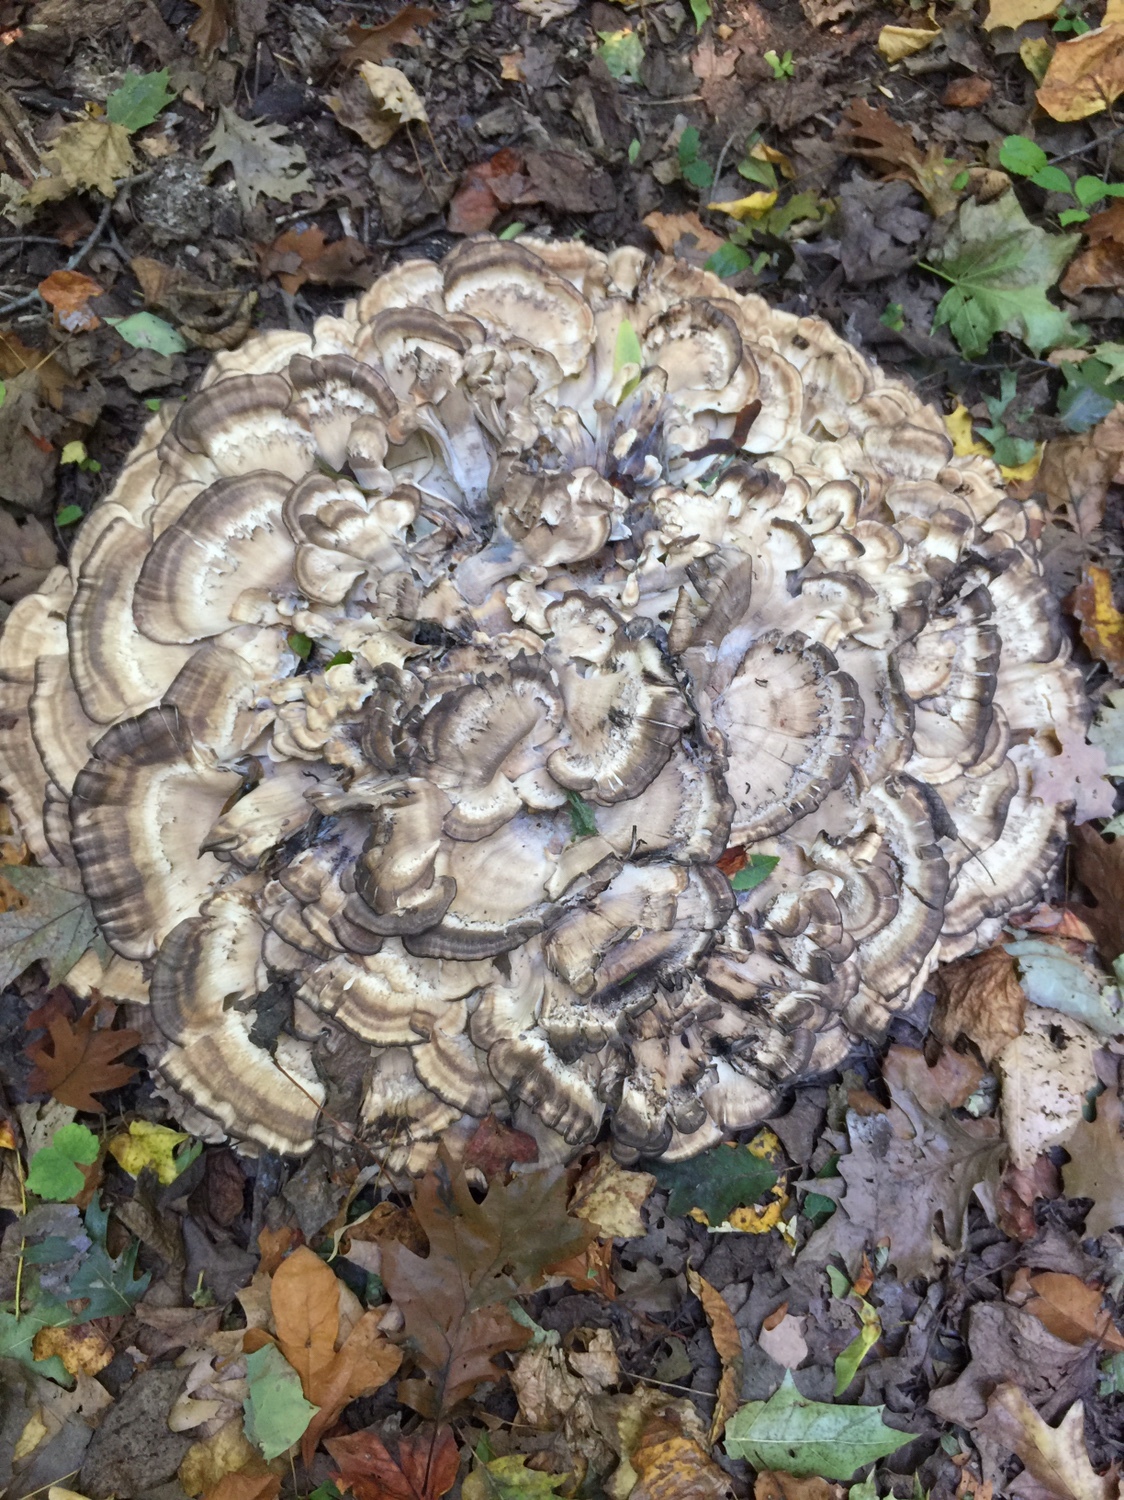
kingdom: Fungi
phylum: Basidiomycota
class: Agaricomycetes
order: Polyporales
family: Grifolaceae
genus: Grifola
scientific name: Grifola frondosa
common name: Hen of the woods
